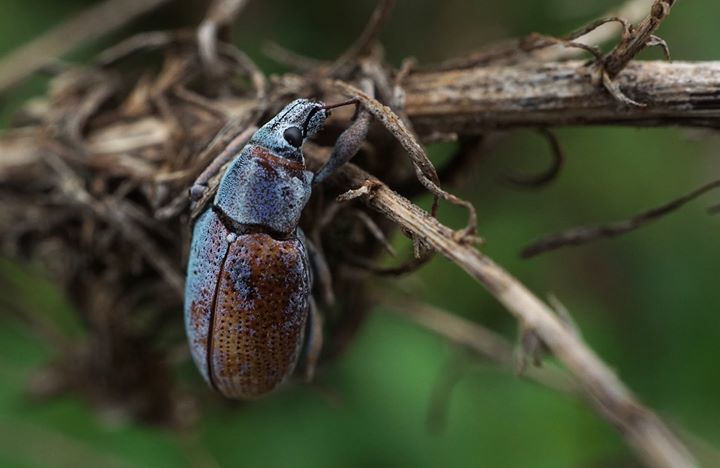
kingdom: Animalia
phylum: Arthropoda
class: Insecta
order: Coleoptera
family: Curculionidae
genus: Pachnaeus
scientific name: Pachnaeus litus
